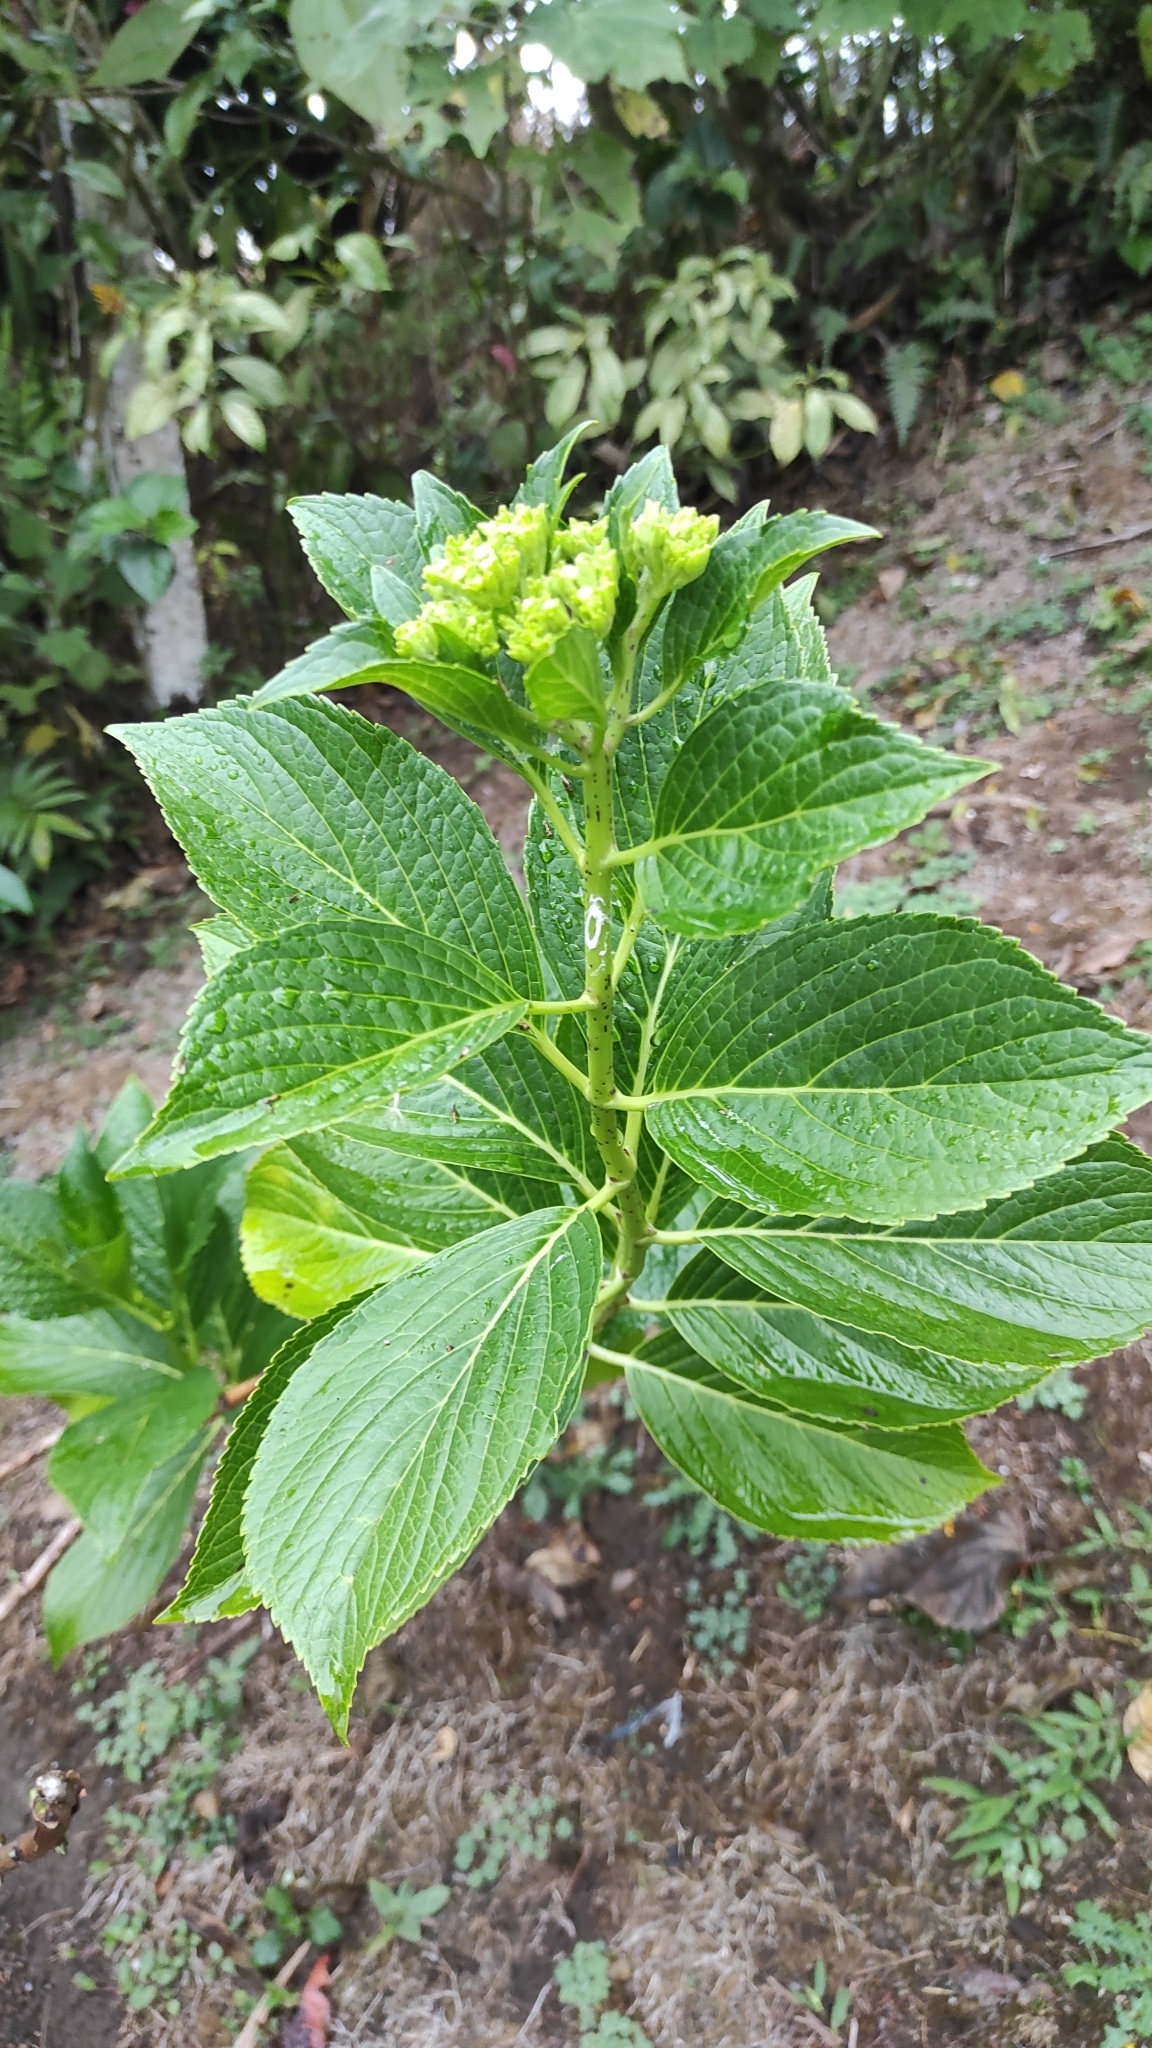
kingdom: Plantae
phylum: Tracheophyta
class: Magnoliopsida
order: Cornales
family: Hydrangeaceae
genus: Hydrangea
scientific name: Hydrangea macrophylla
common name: Hydrangea
